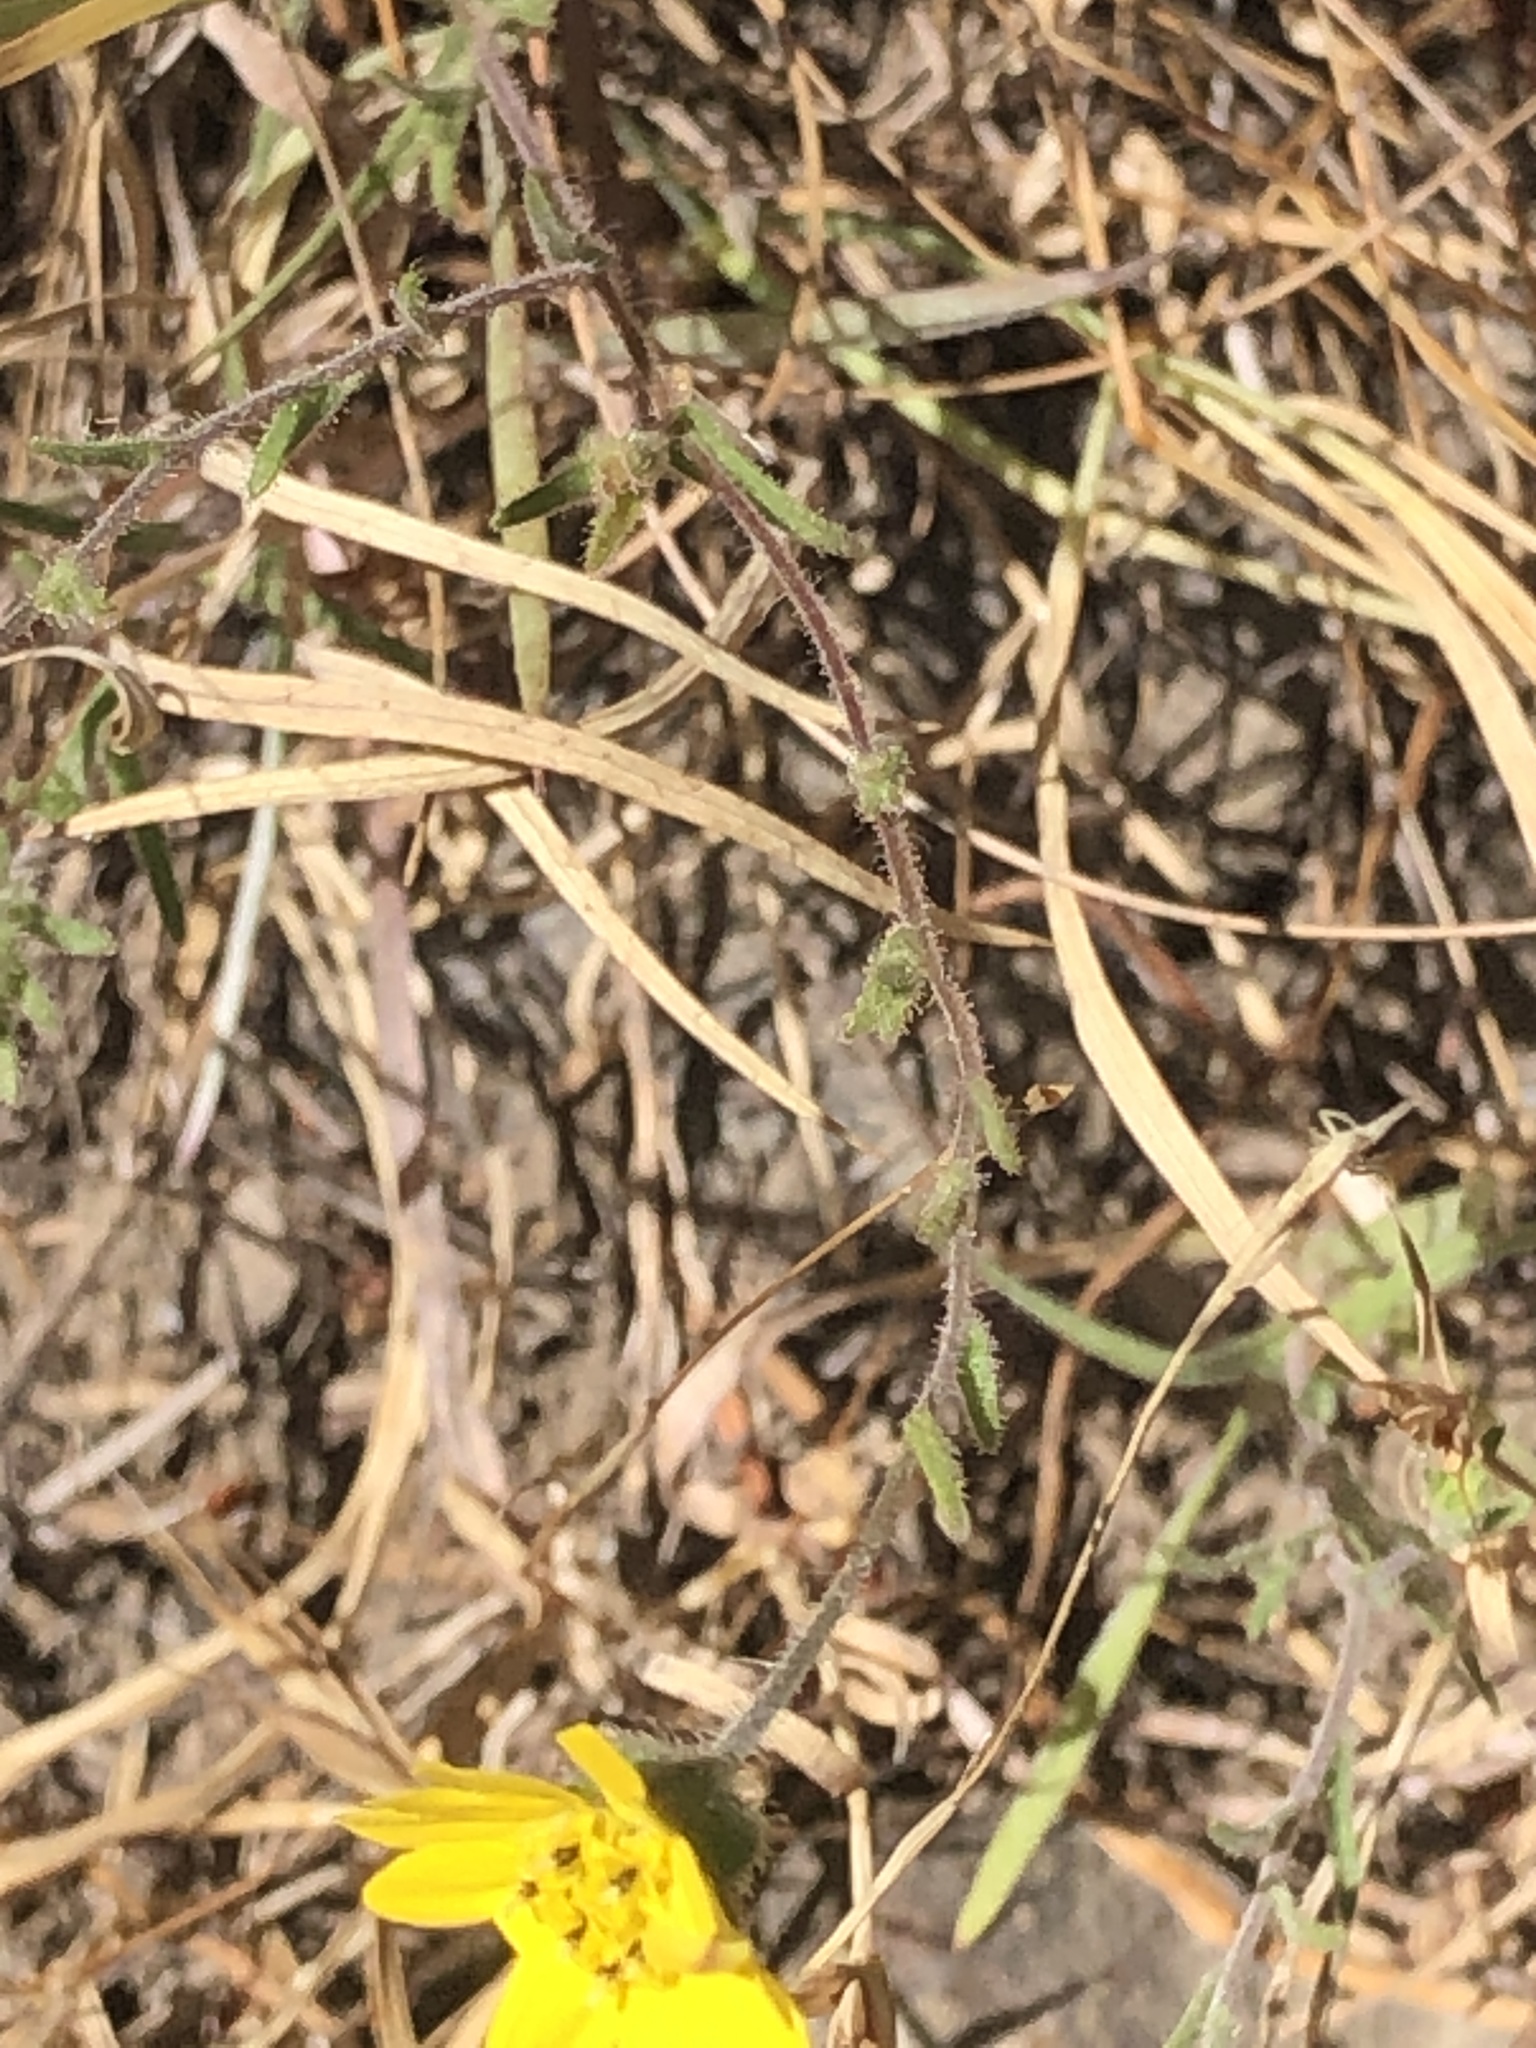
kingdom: Plantae
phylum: Tracheophyta
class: Magnoliopsida
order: Asterales
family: Asteraceae
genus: Hemizonia
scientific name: Hemizonia congesta
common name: Hayfield tarweed
